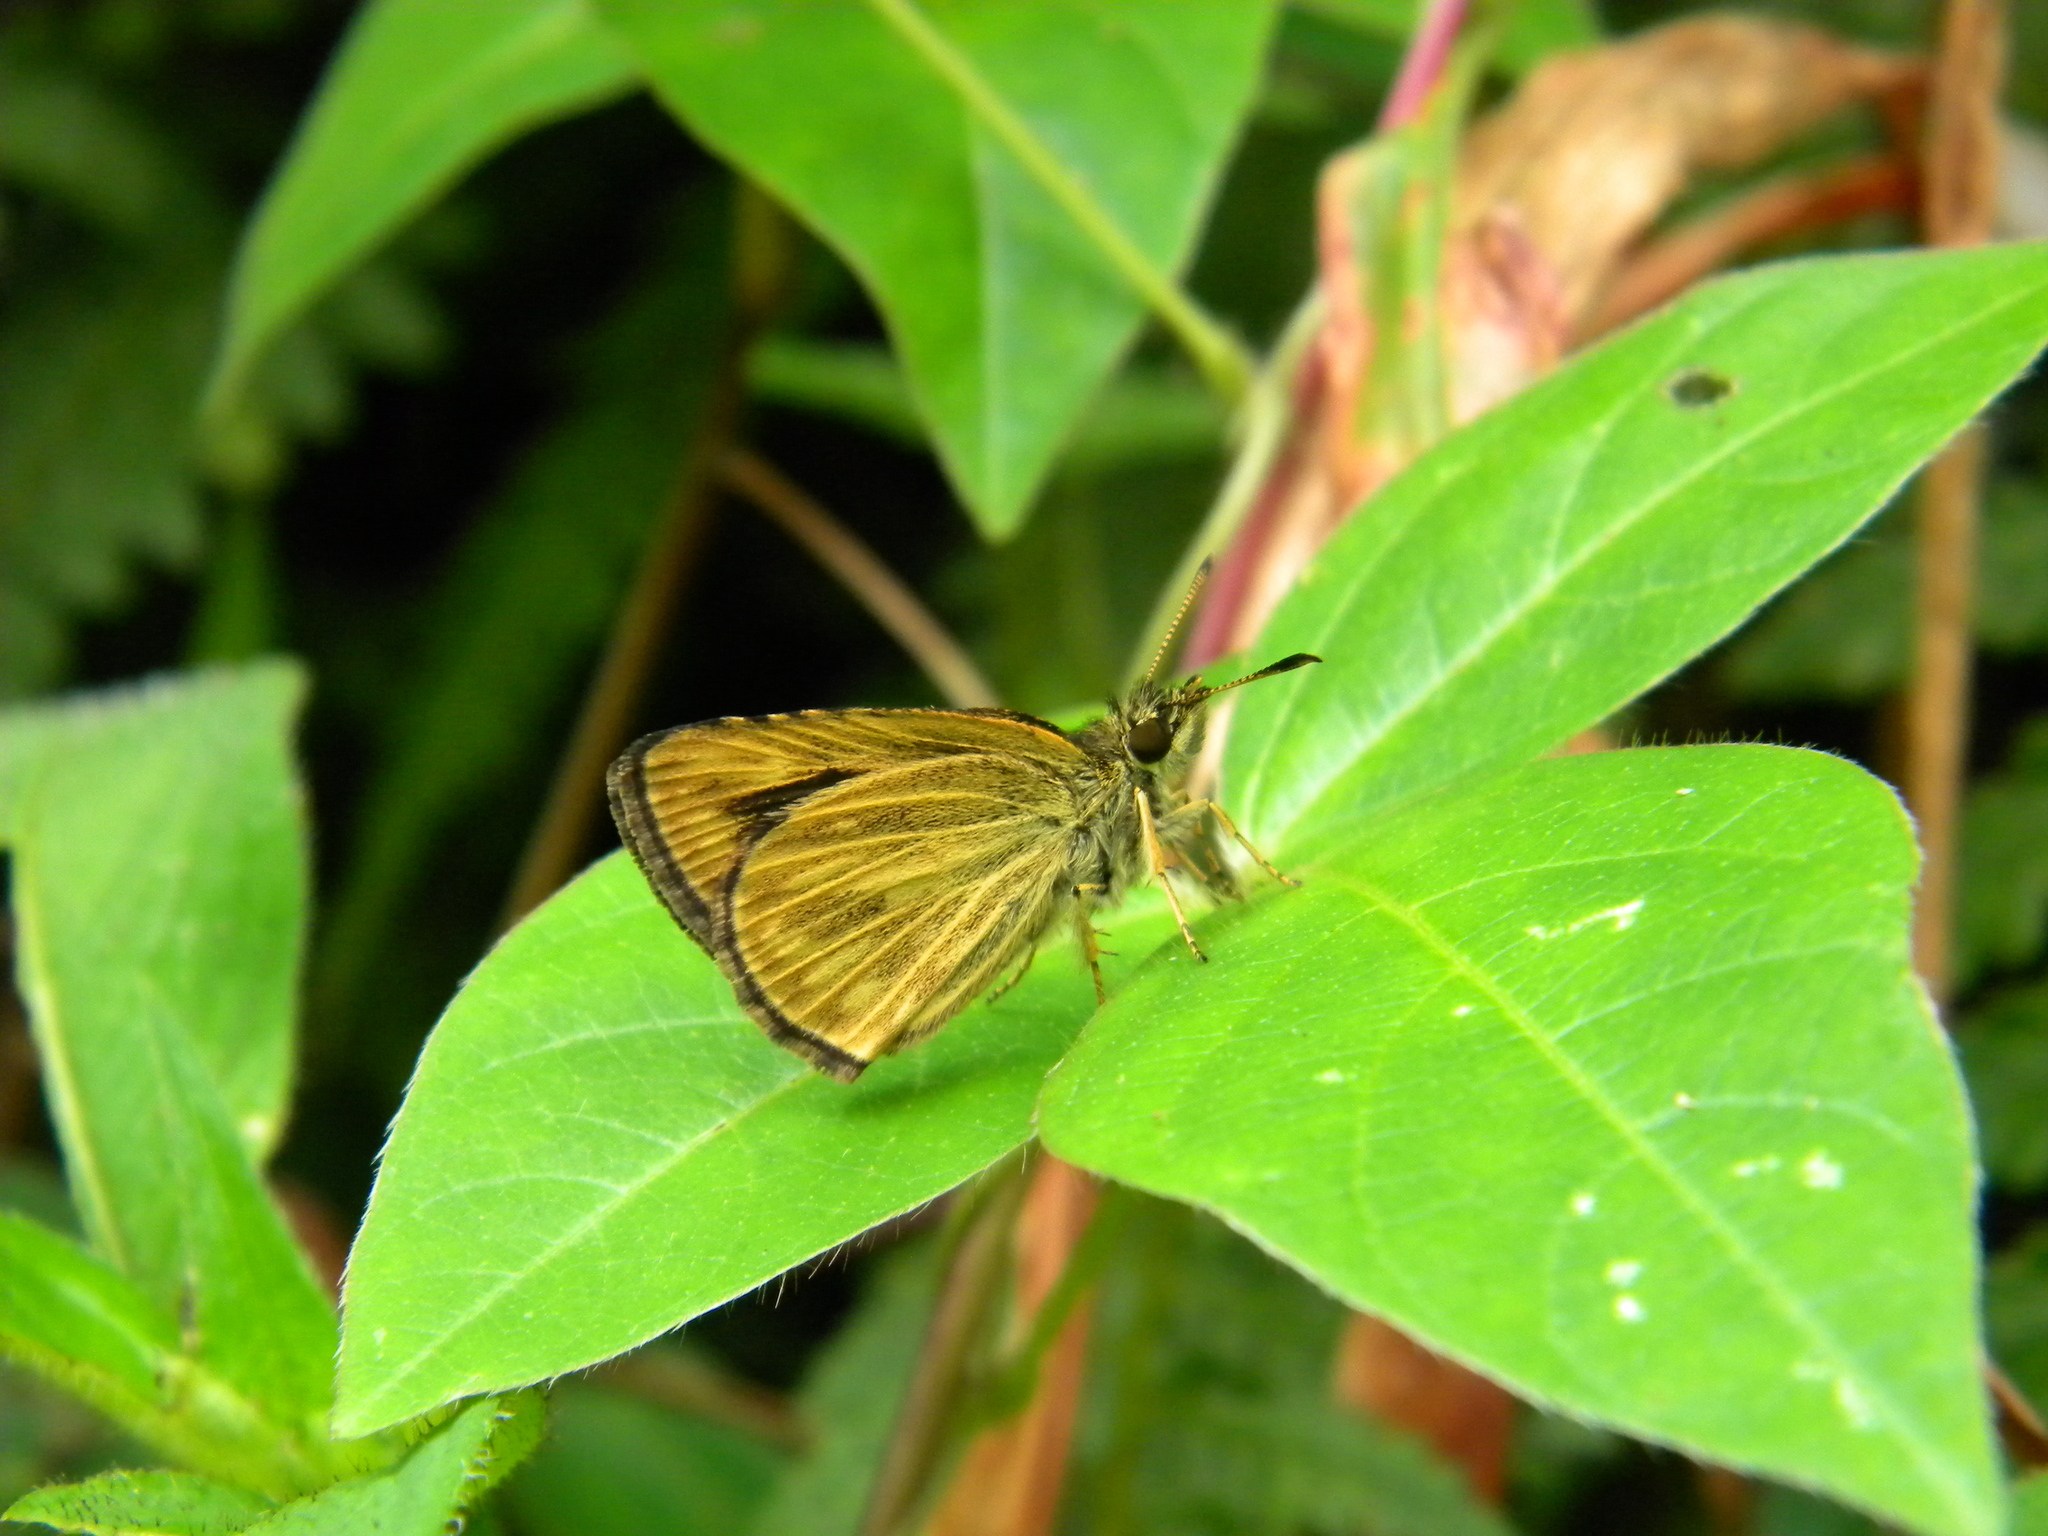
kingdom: Animalia
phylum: Arthropoda
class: Insecta
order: Lepidoptera
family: Hesperiidae
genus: Baracus
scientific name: Baracus vittatus
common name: Hedge-hopper
